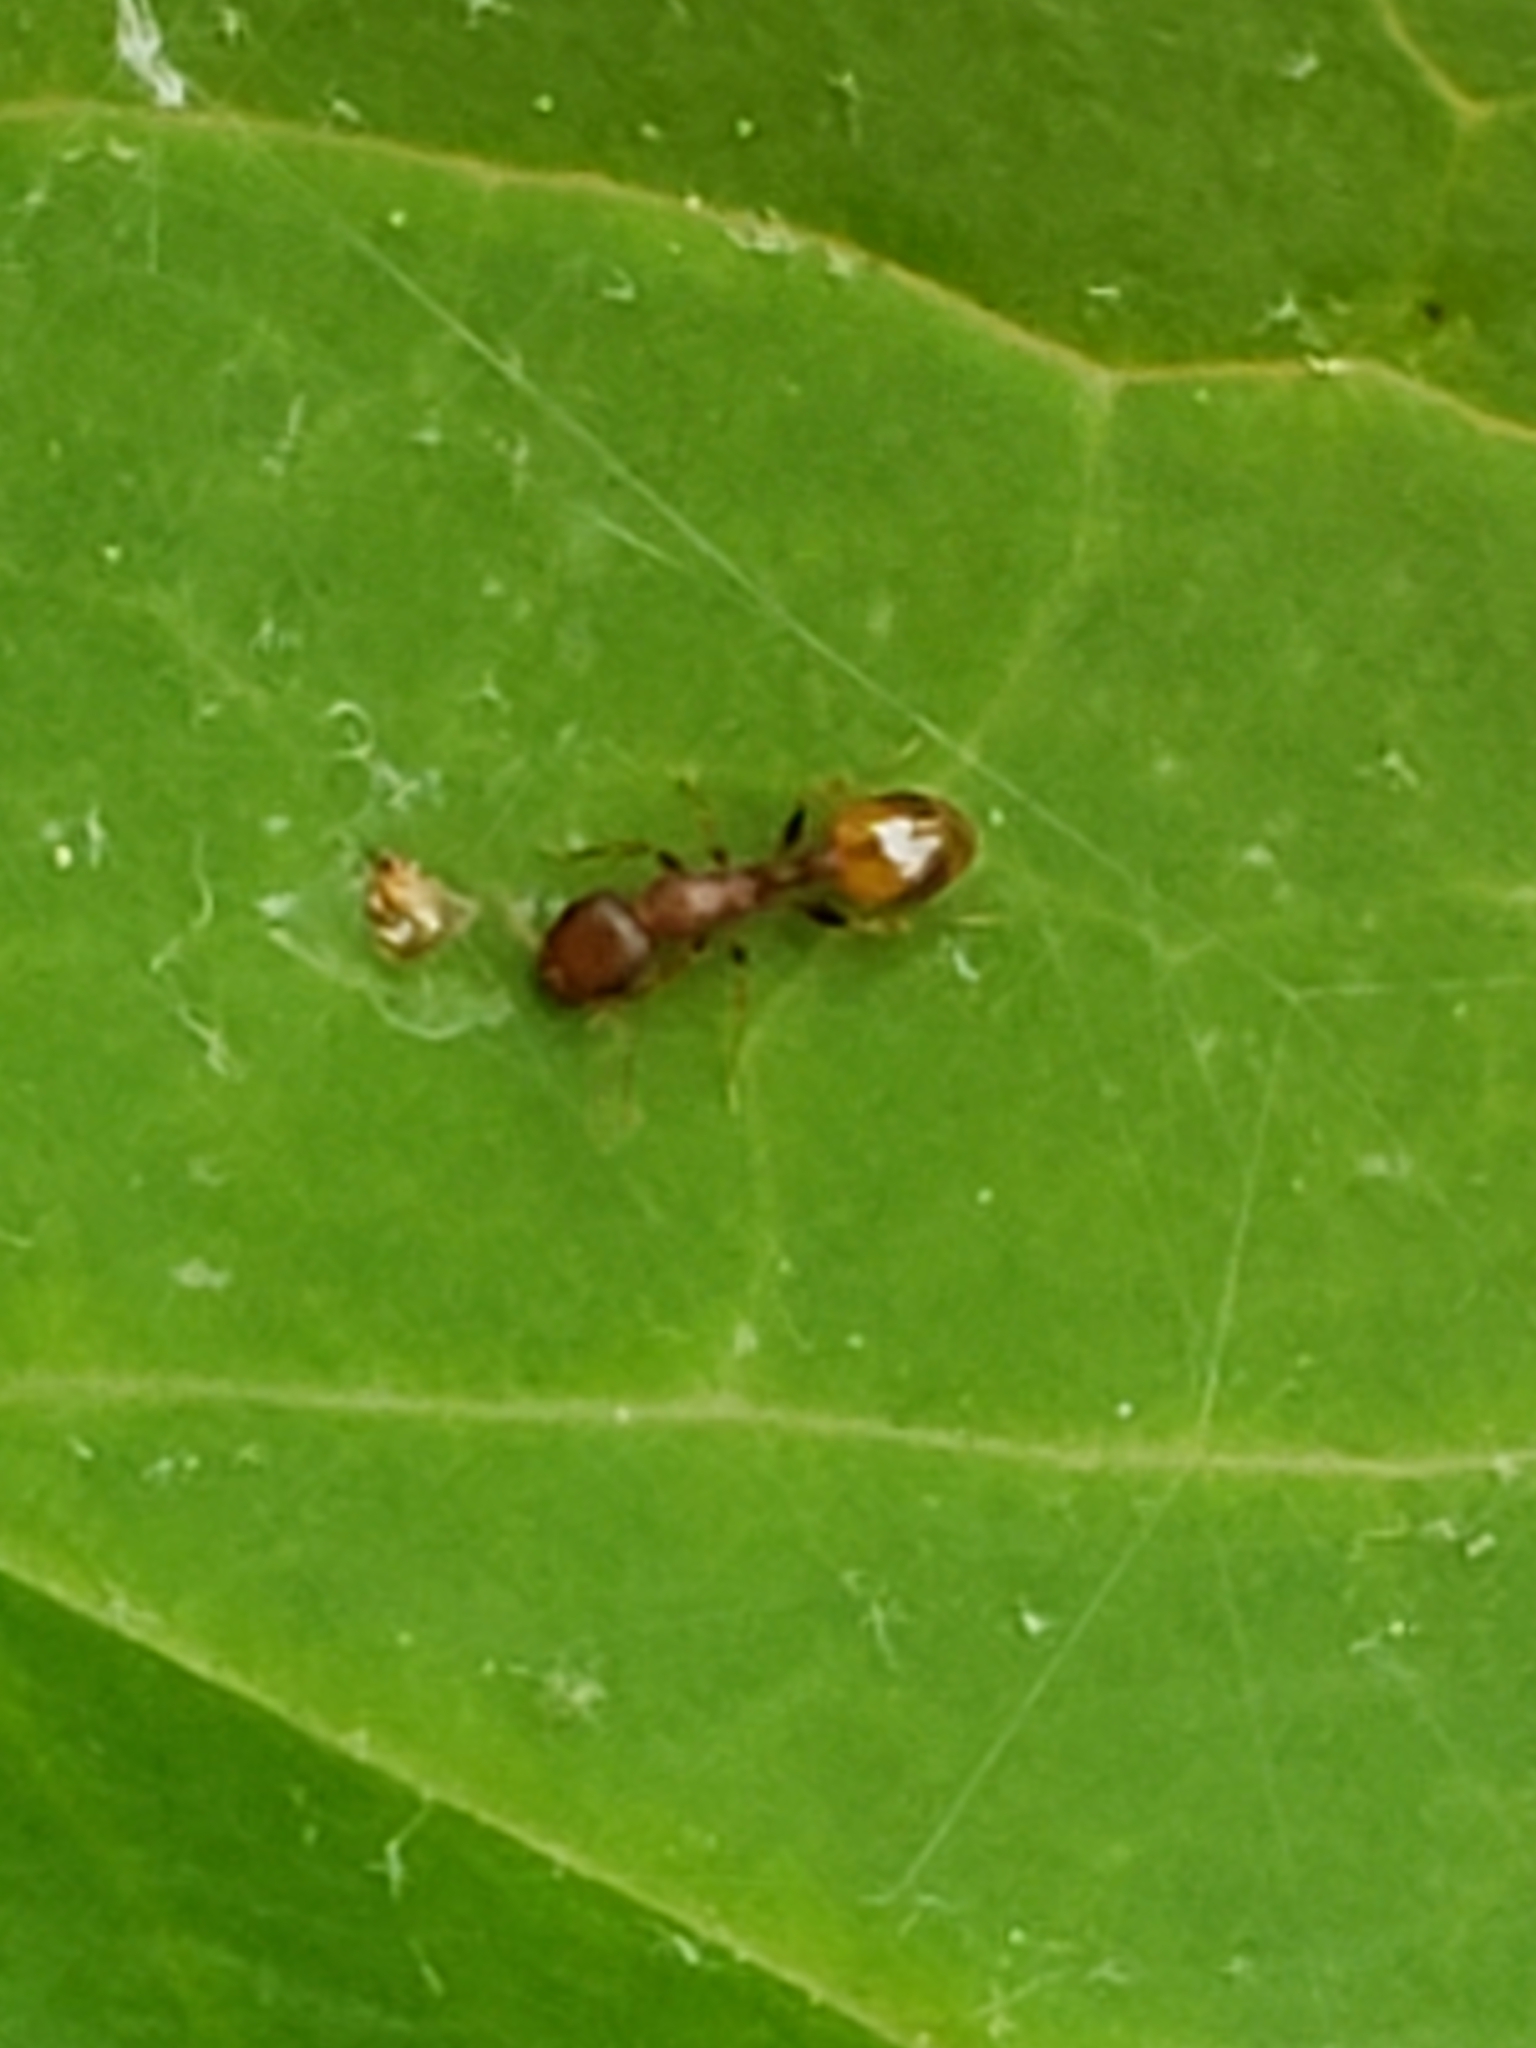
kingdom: Animalia
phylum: Arthropoda
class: Insecta
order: Hymenoptera
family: Formicidae
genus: Temnothorax
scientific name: Temnothorax curvispinosus
